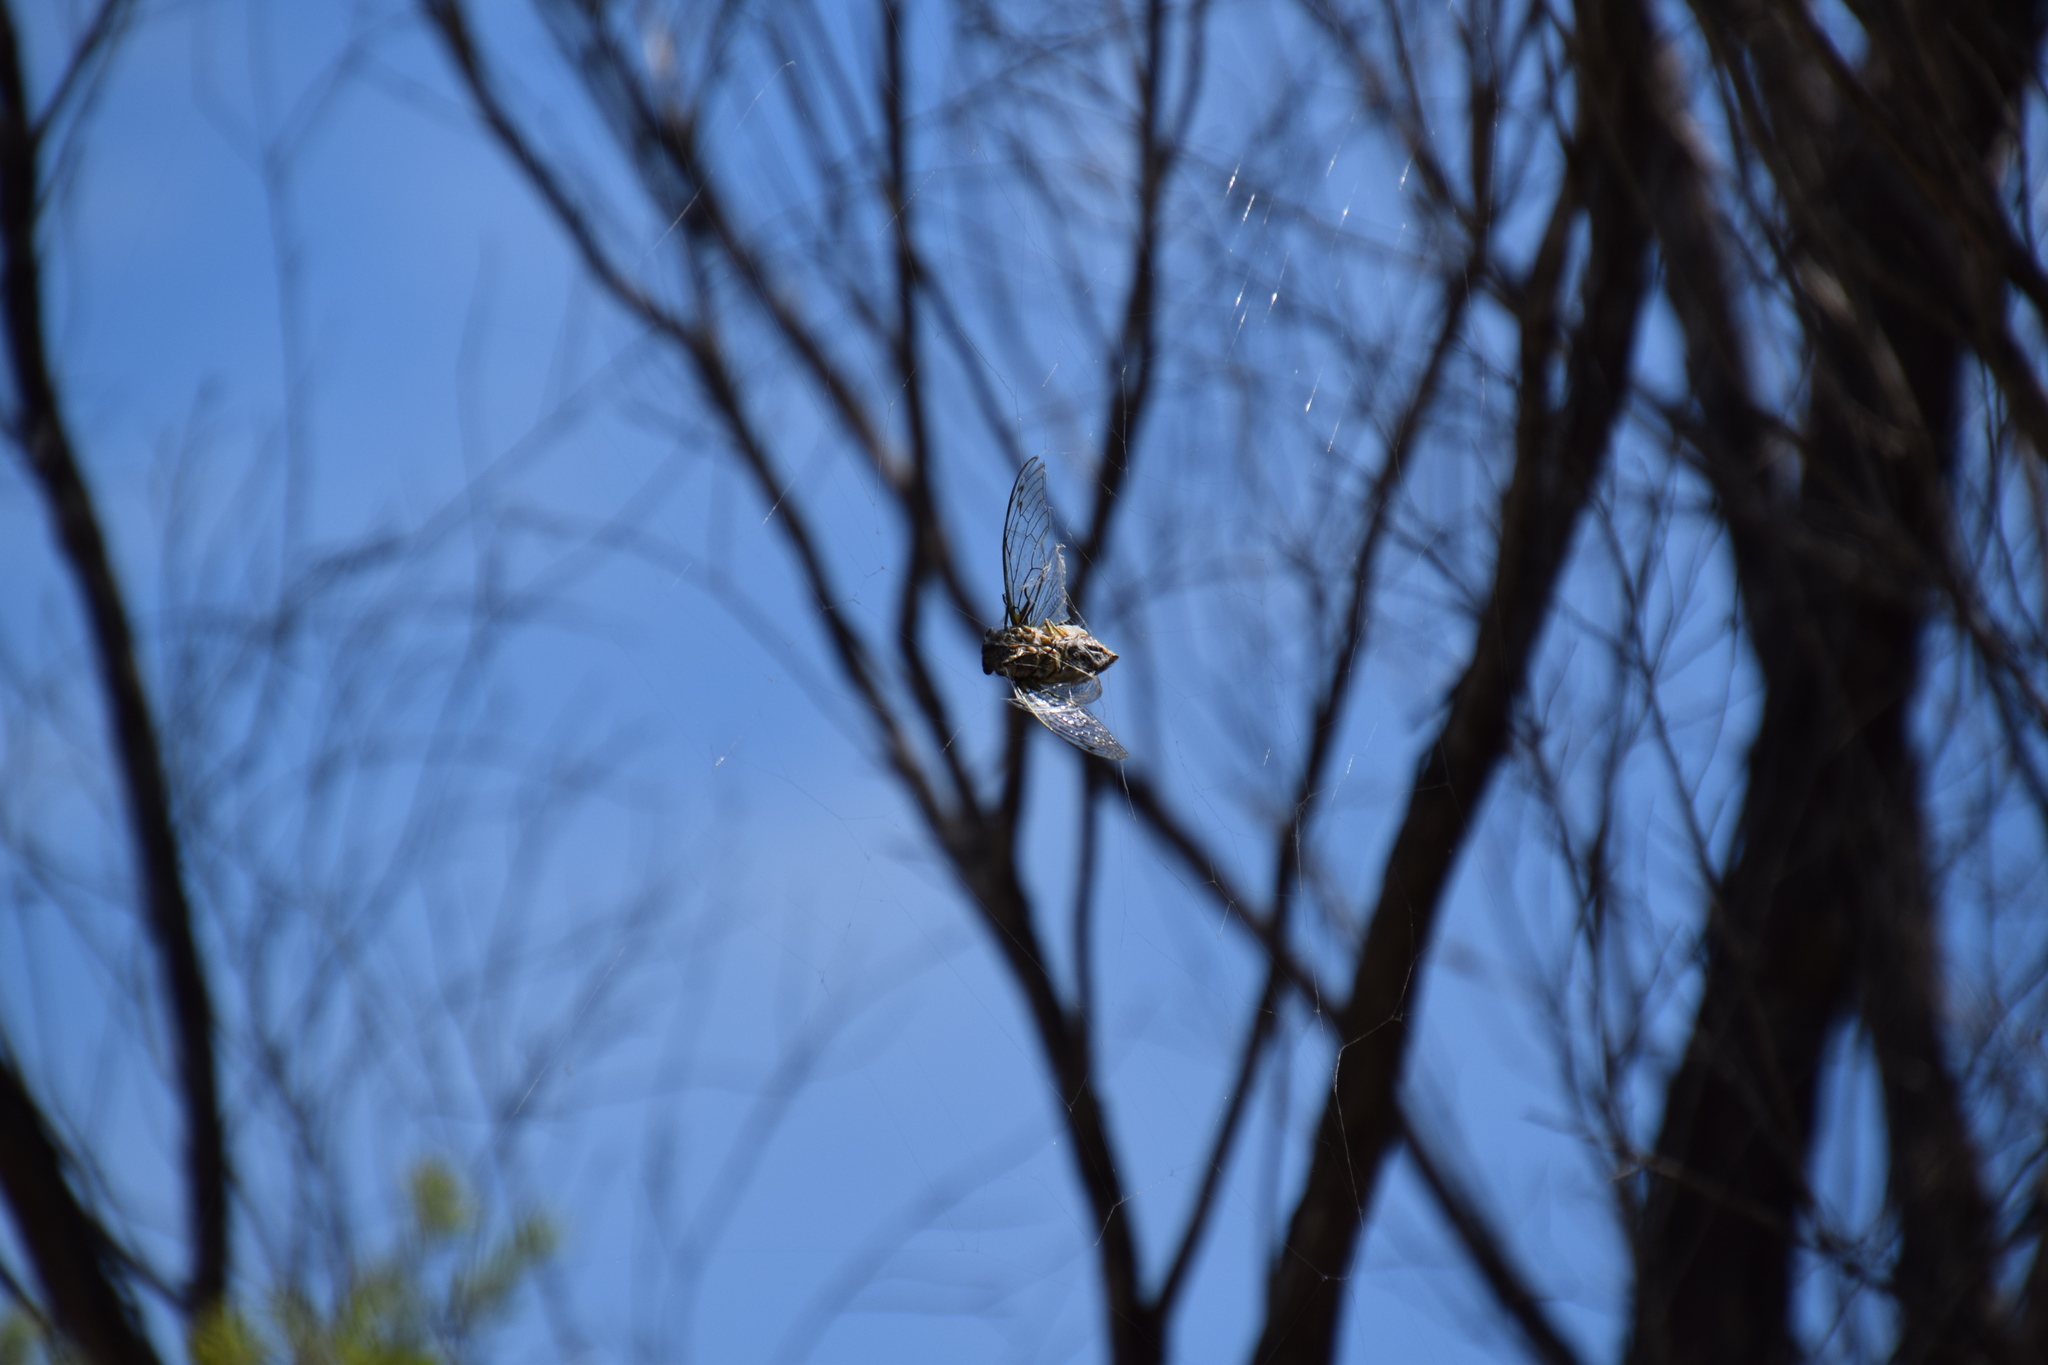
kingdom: Animalia
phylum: Arthropoda
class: Insecta
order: Hemiptera
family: Cicadidae
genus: Arunta
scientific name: Arunta perulata
